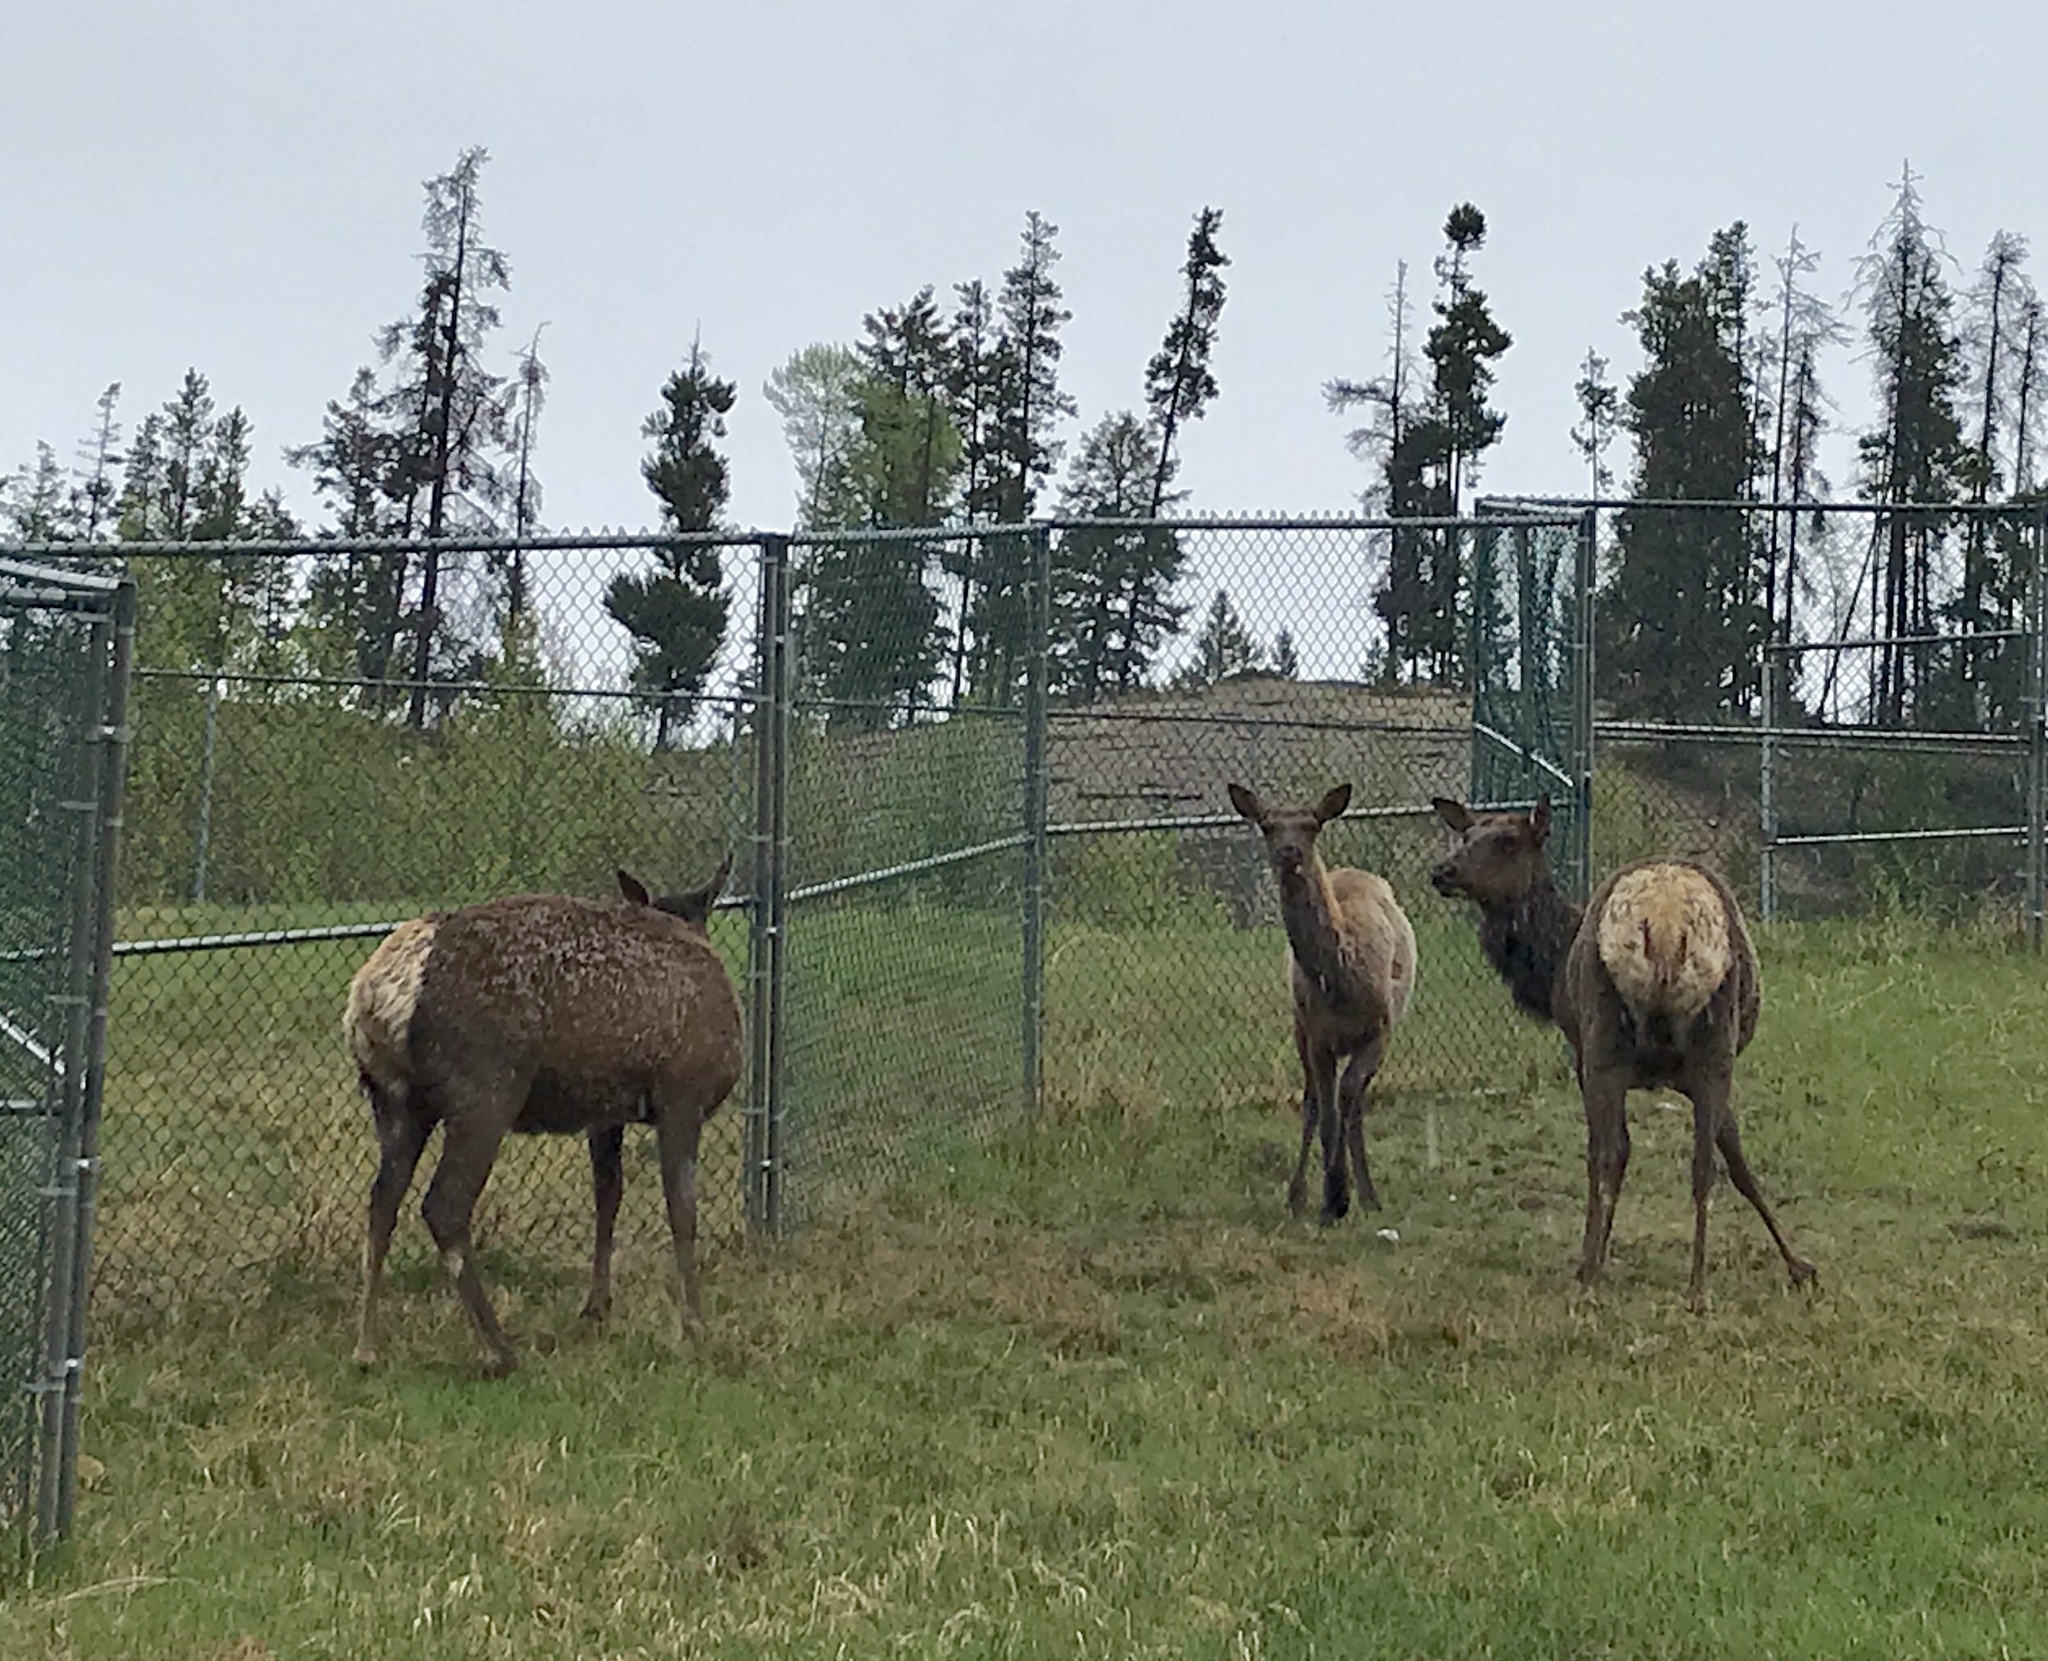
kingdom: Animalia
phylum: Chordata
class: Mammalia
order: Artiodactyla
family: Cervidae
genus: Cervus
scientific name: Cervus elaphus
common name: Red deer
